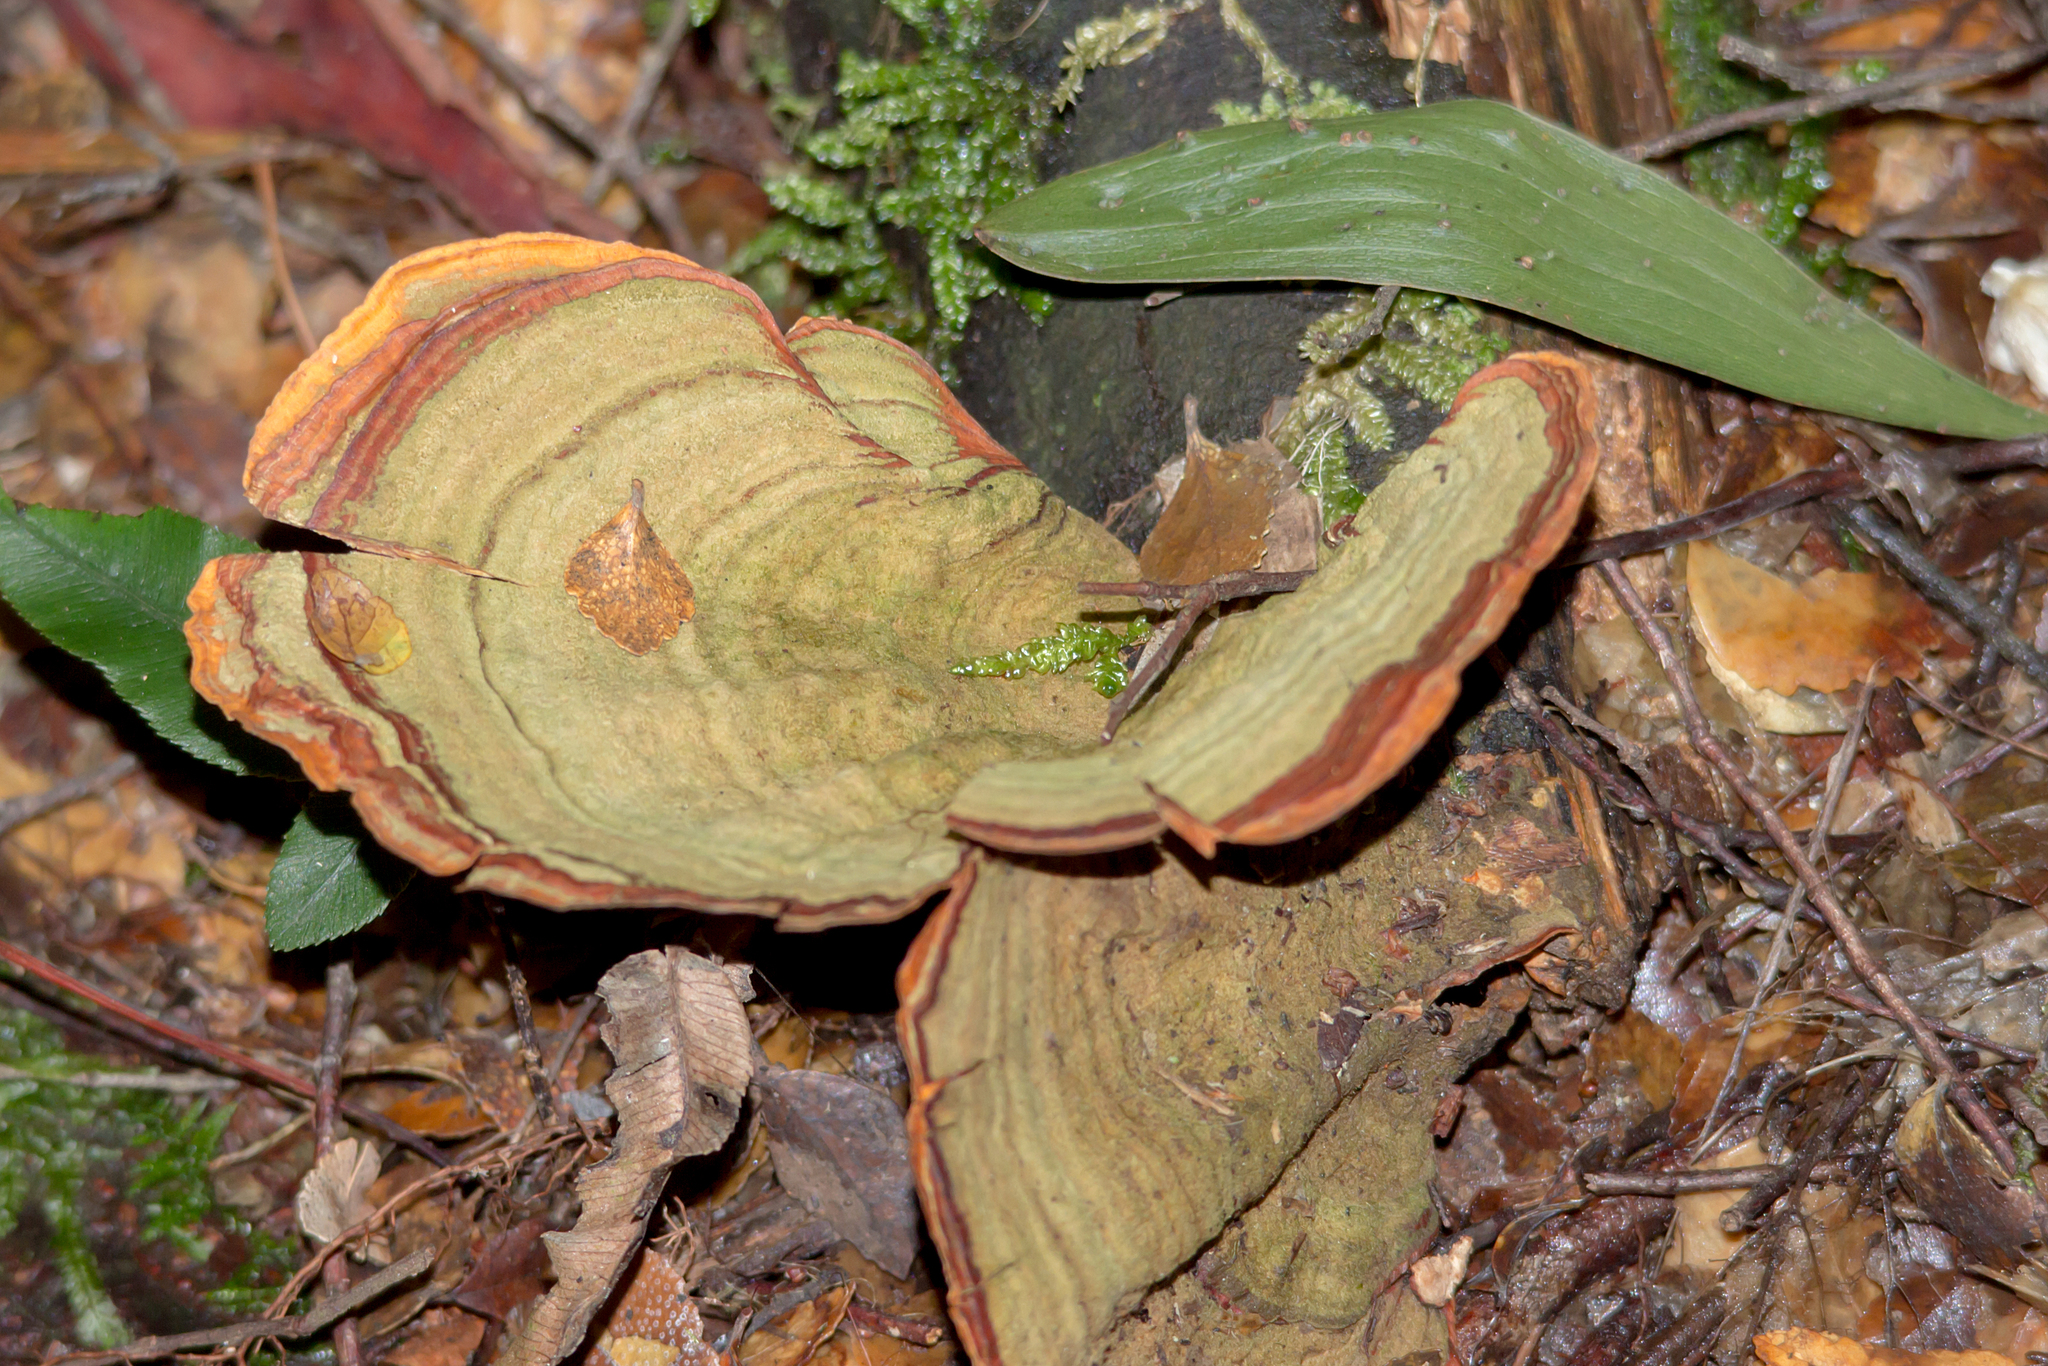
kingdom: Fungi
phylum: Basidiomycota
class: Agaricomycetes
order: Russulales
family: Stereaceae
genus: Stereum
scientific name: Stereum versicolor
